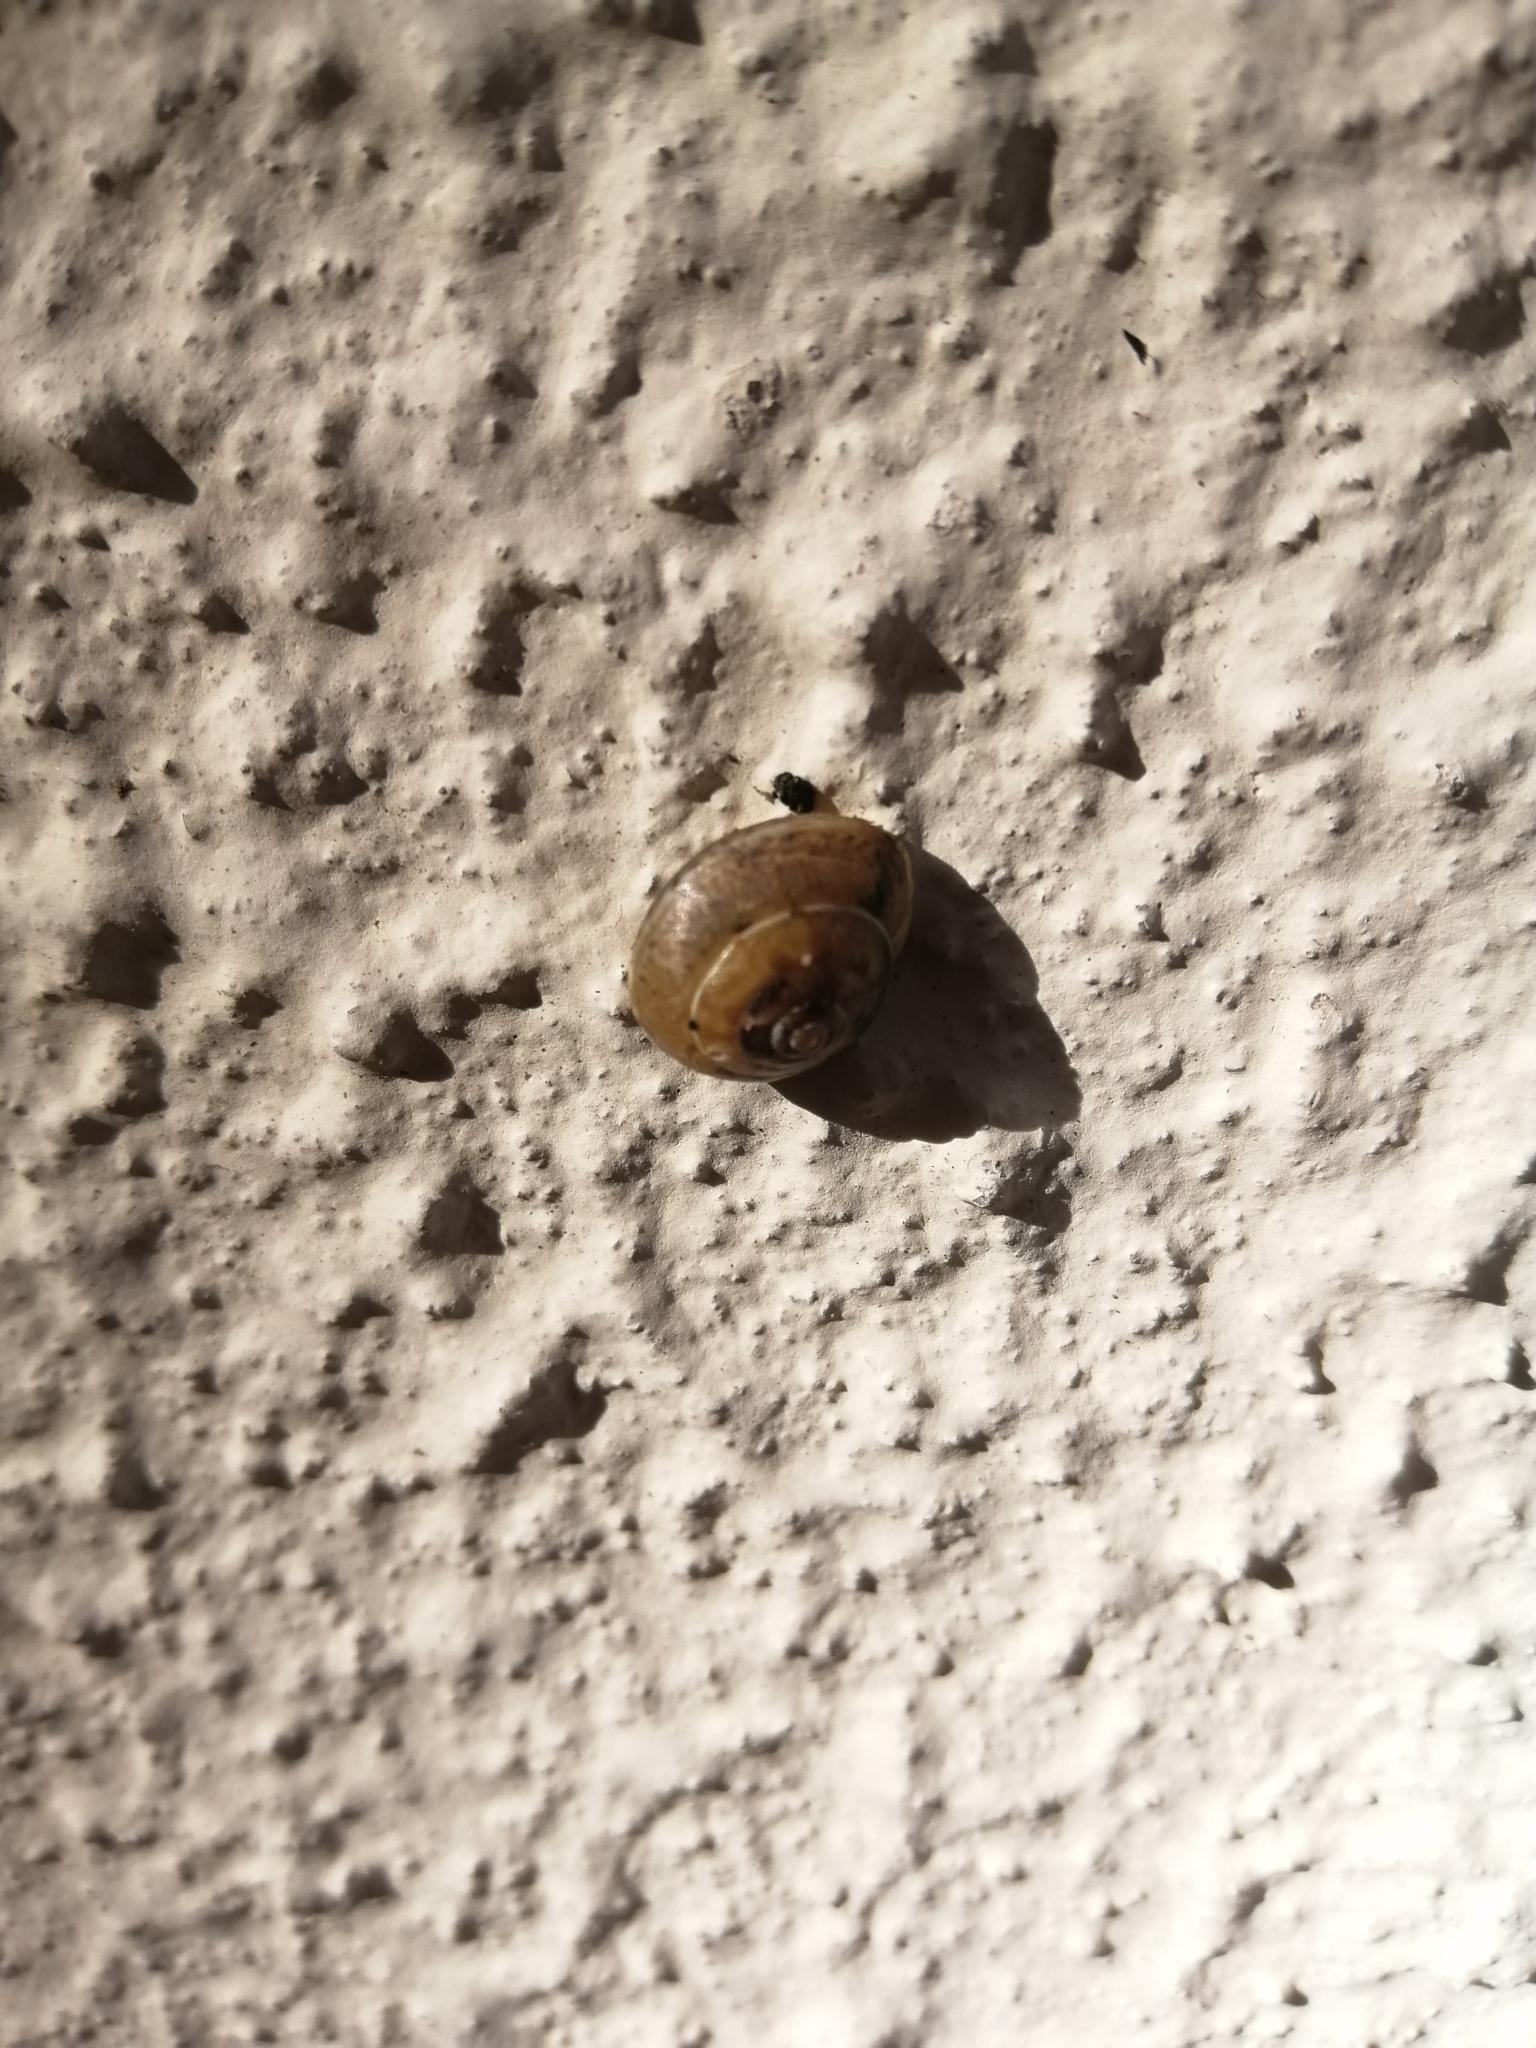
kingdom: Animalia
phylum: Mollusca
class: Gastropoda
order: Stylommatophora
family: Hygromiidae
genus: Hygromia
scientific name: Hygromia cinctella
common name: Girdled snail
